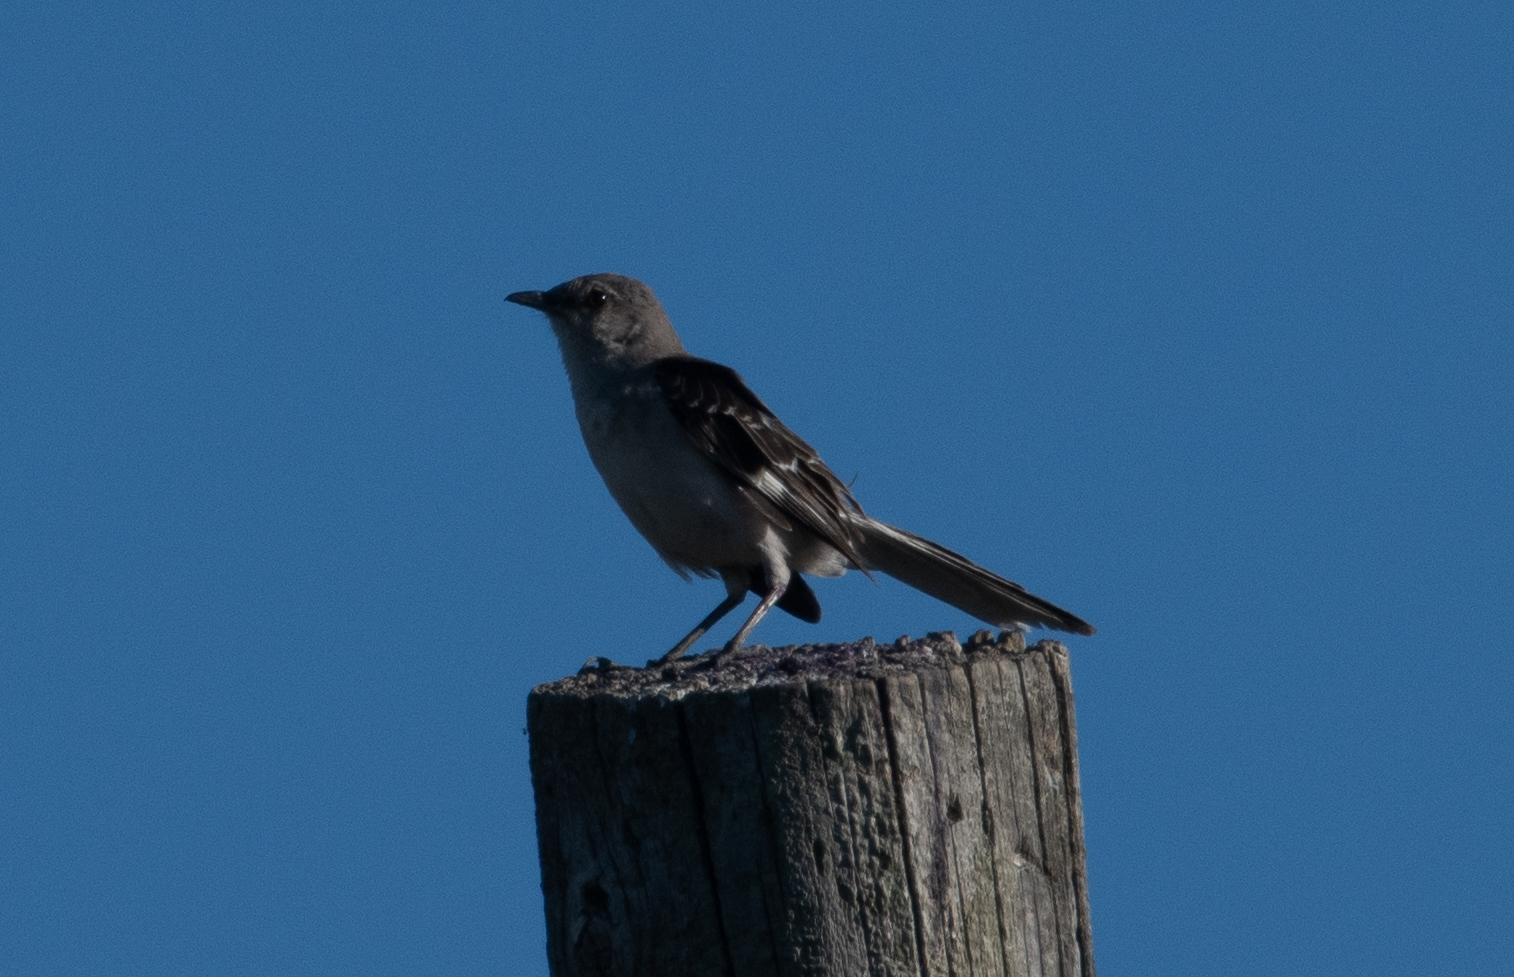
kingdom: Animalia
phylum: Chordata
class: Aves
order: Passeriformes
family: Mimidae
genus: Mimus
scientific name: Mimus polyglottos
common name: Northern mockingbird
